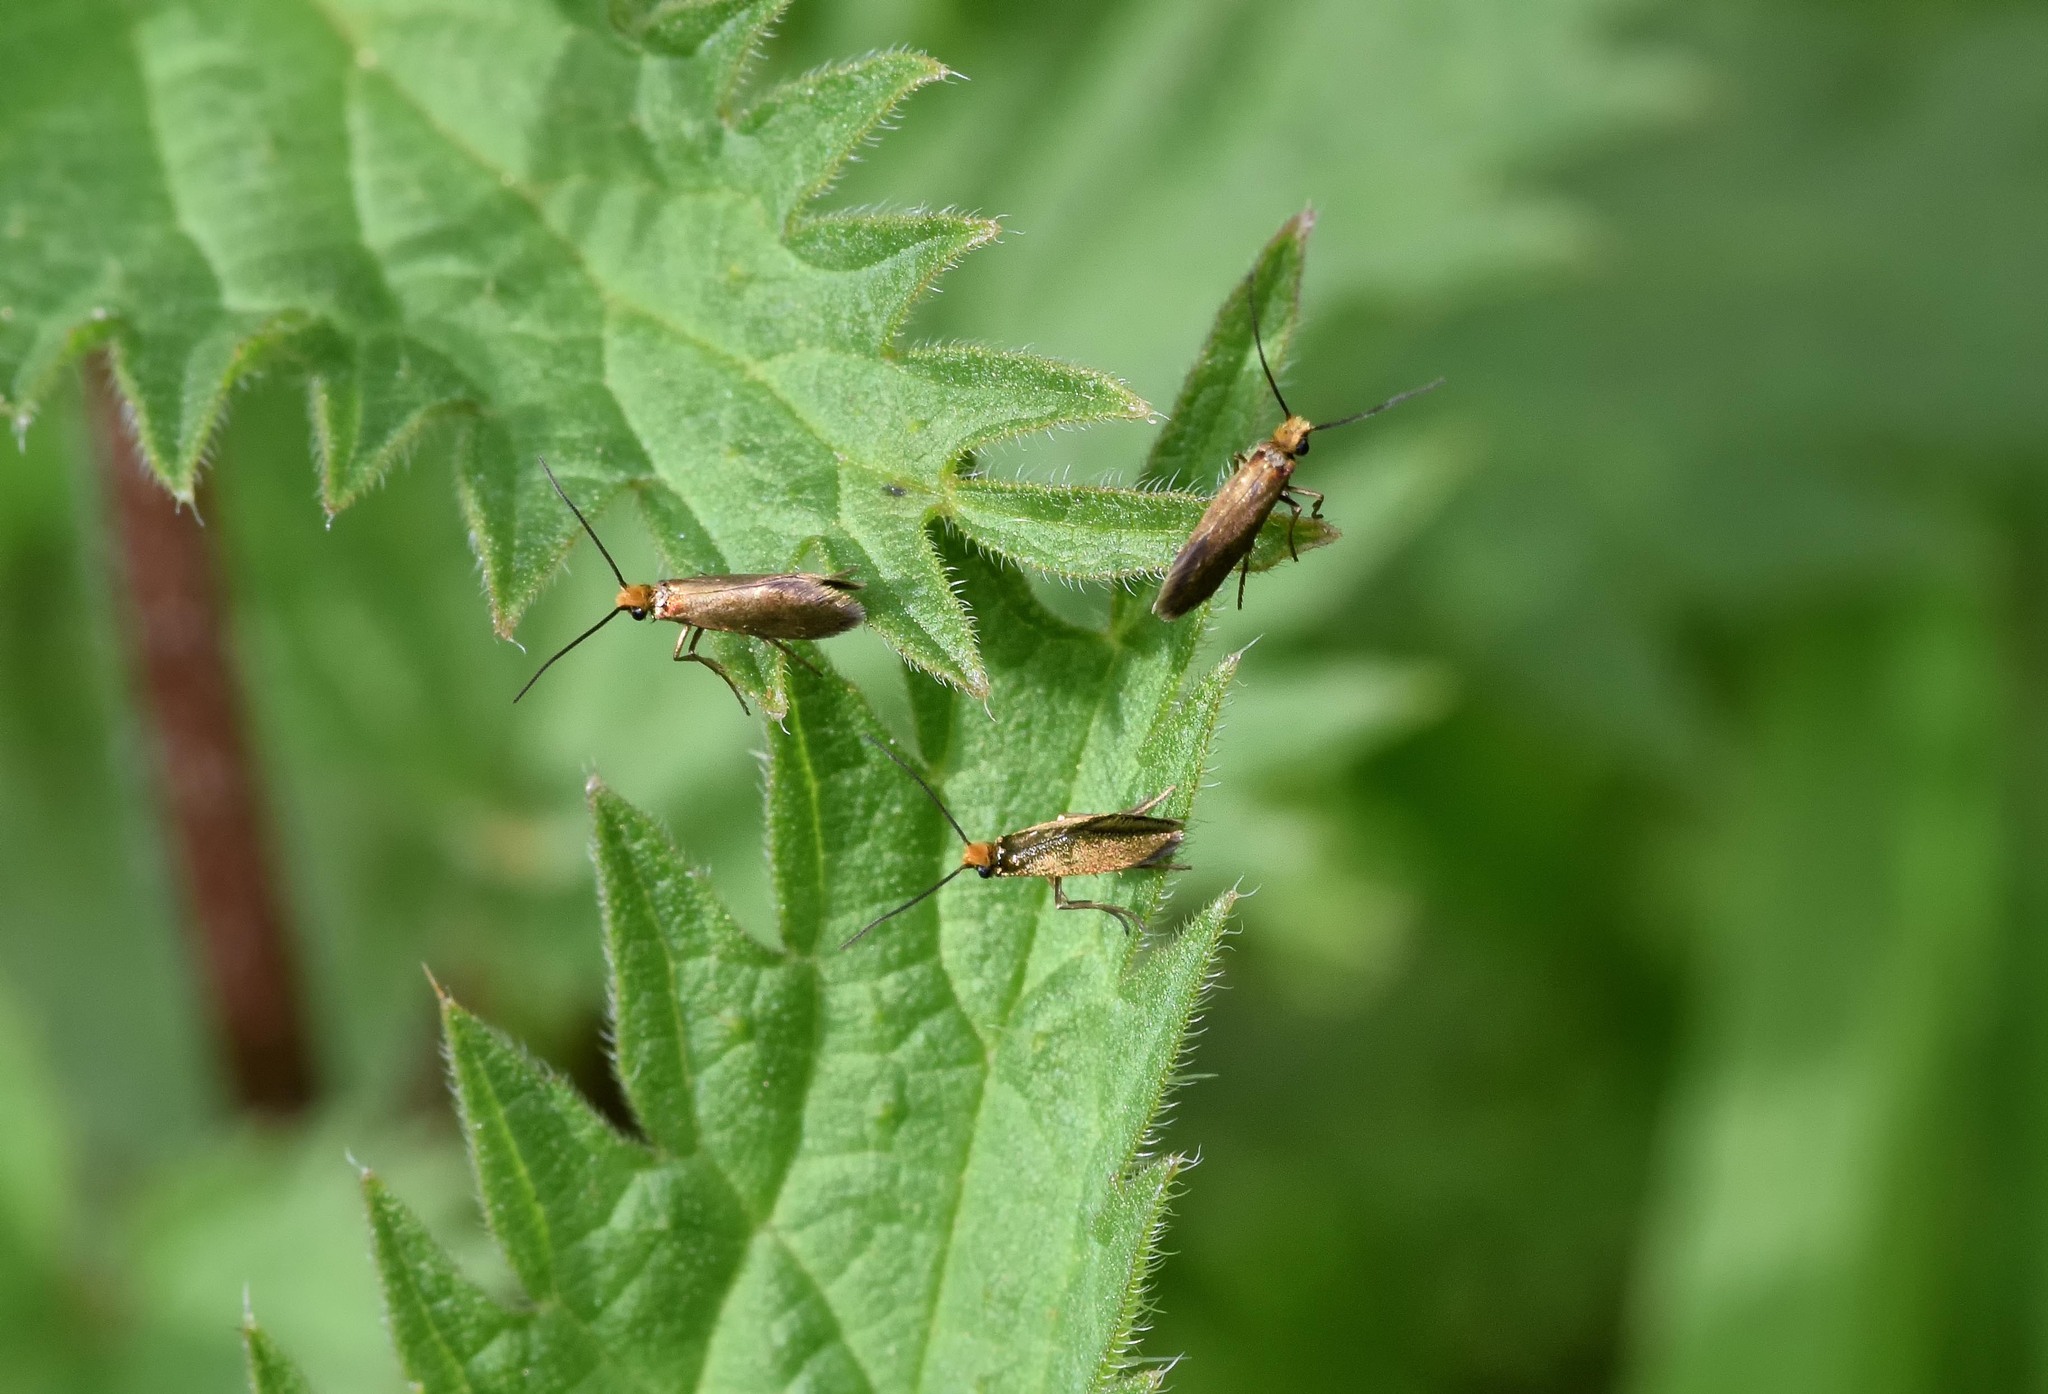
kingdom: Animalia
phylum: Arthropoda
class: Insecta
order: Lepidoptera
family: Micropterigidae
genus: Micropterix
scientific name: Micropterix calthella
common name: Plain gold
